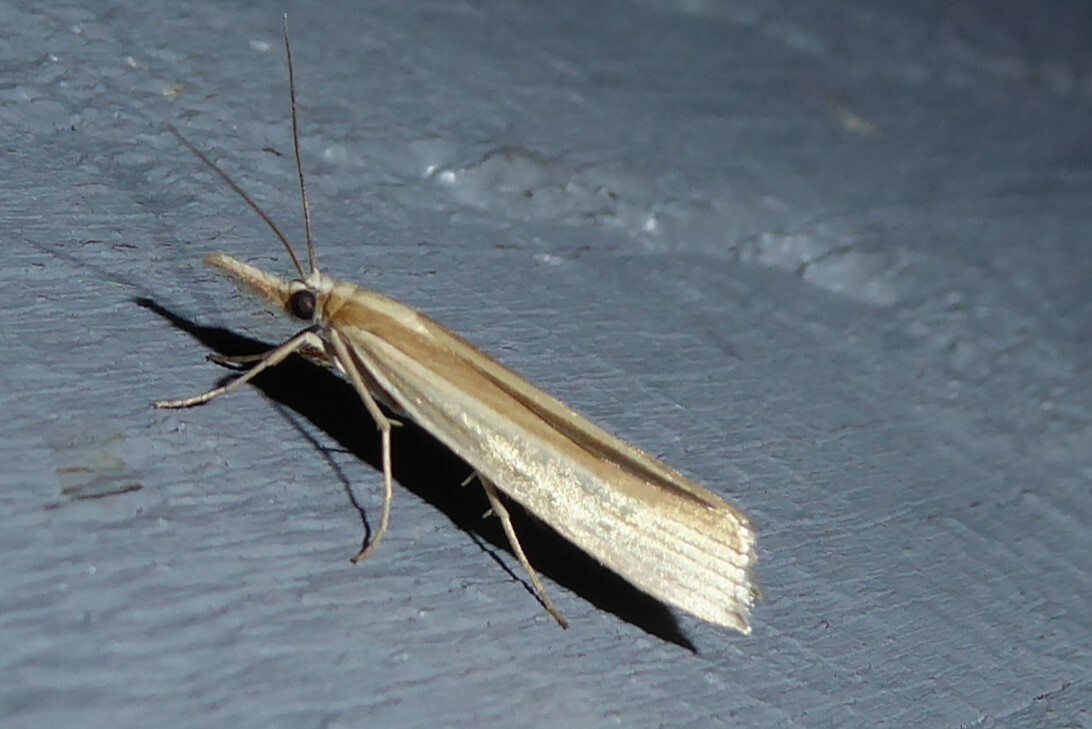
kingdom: Animalia
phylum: Arthropoda
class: Insecta
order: Lepidoptera
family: Crambidae
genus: Orocrambus
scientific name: Orocrambus angustipennis
